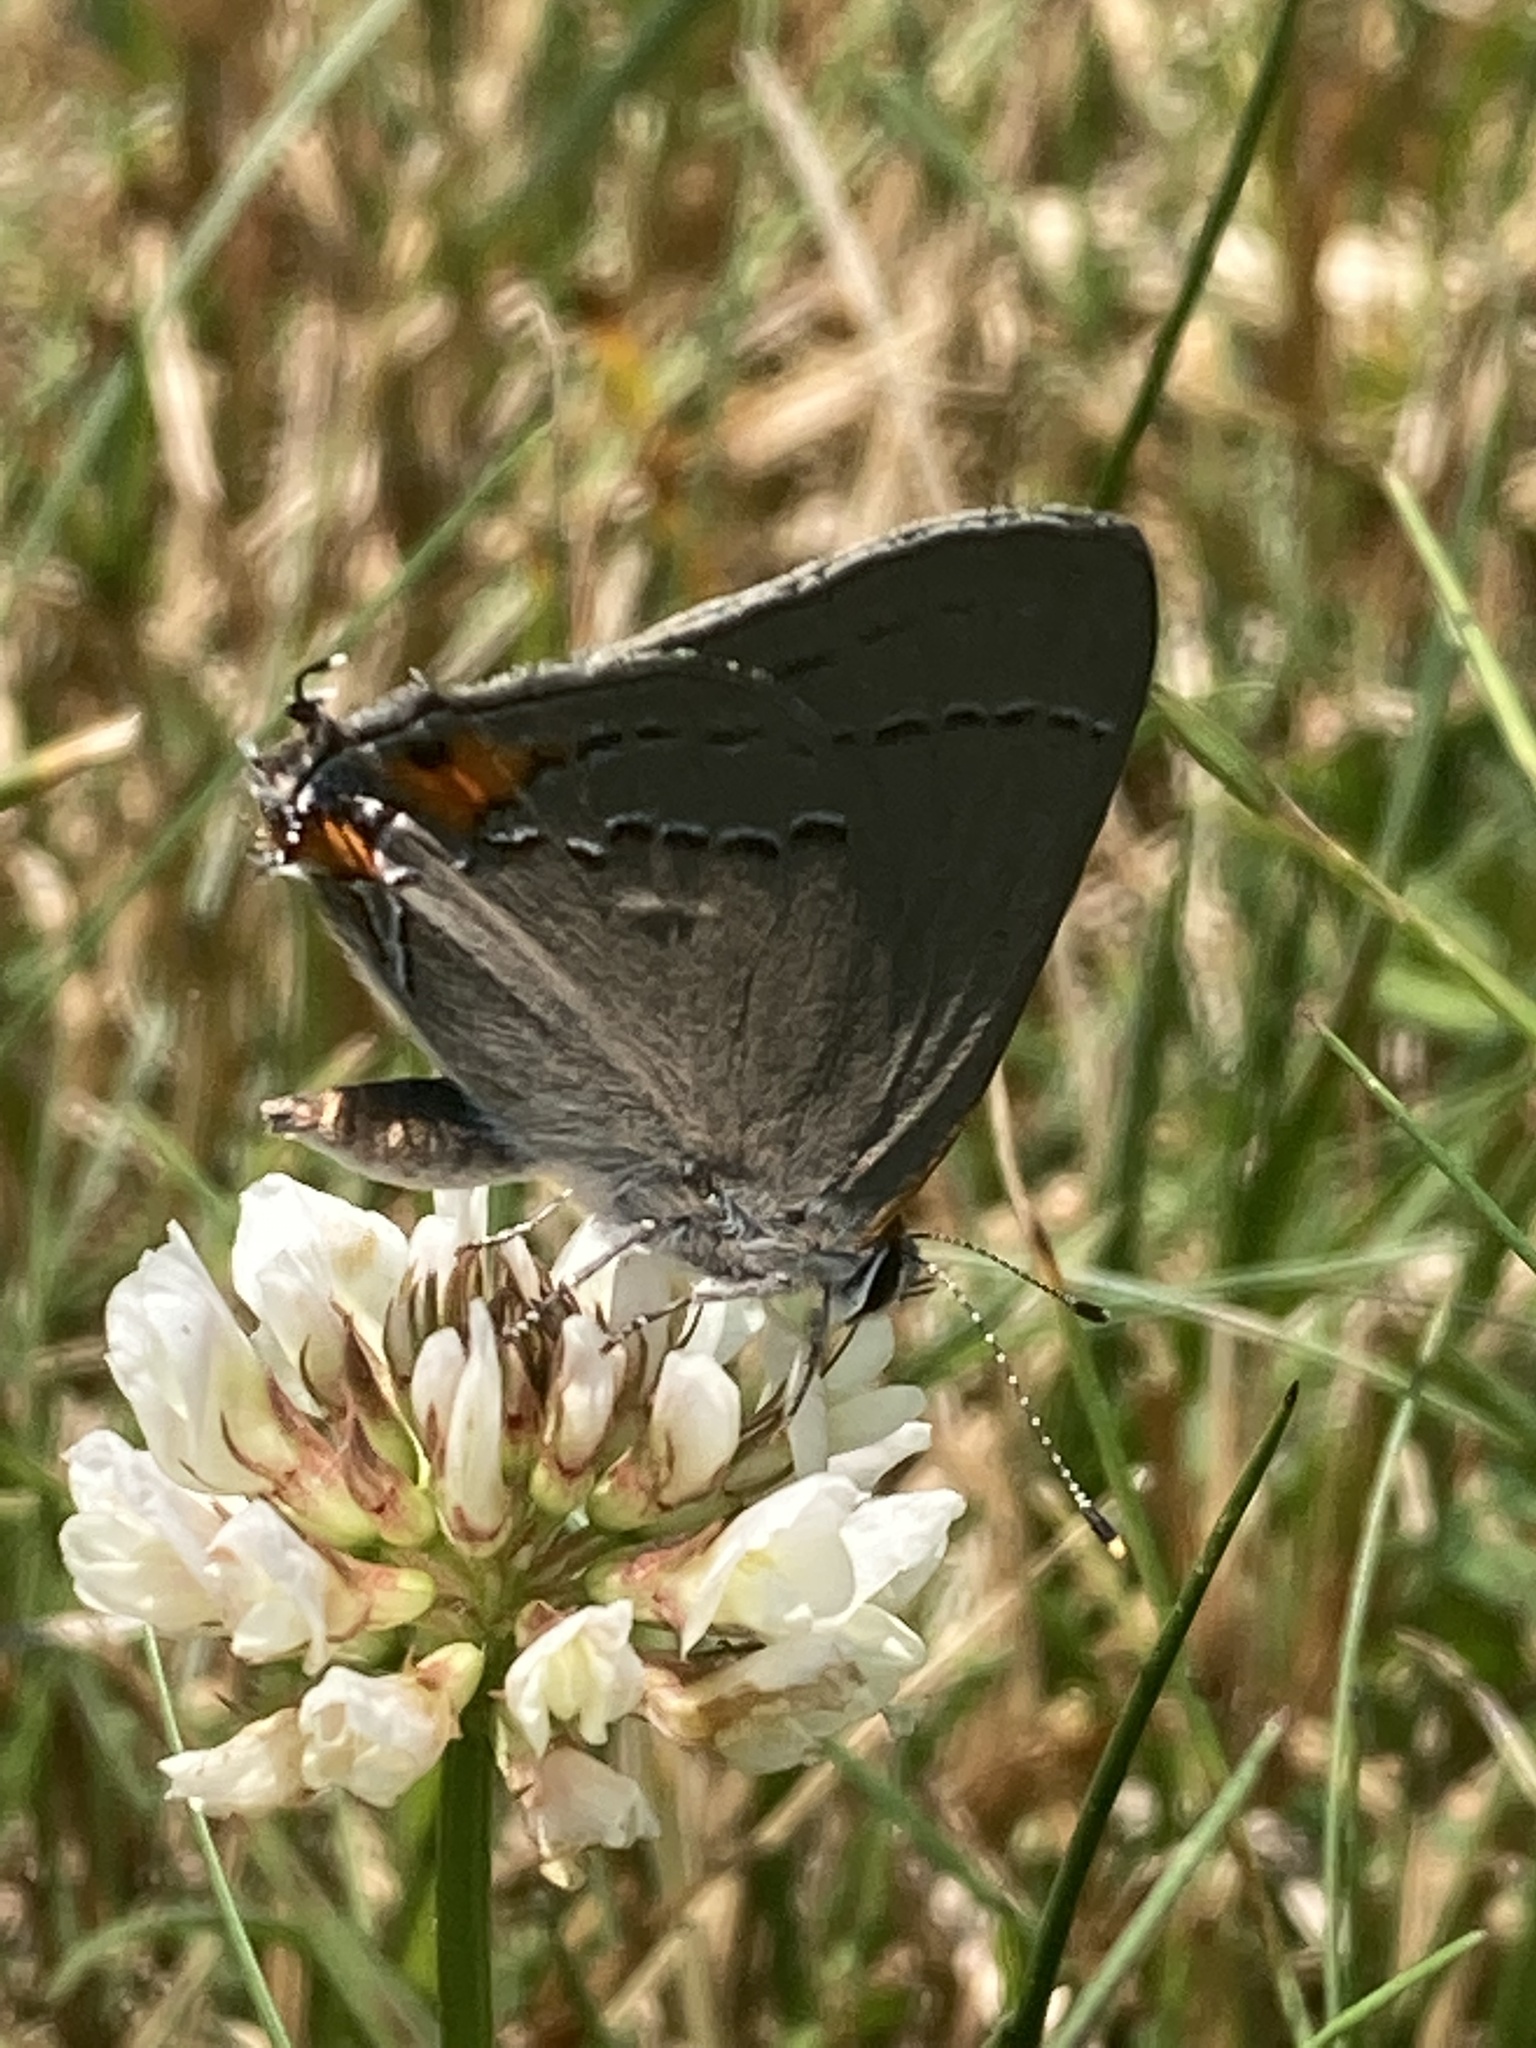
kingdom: Animalia
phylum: Arthropoda
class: Insecta
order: Lepidoptera
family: Lycaenidae
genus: Strymon
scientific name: Strymon melinus
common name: Gray hairstreak
